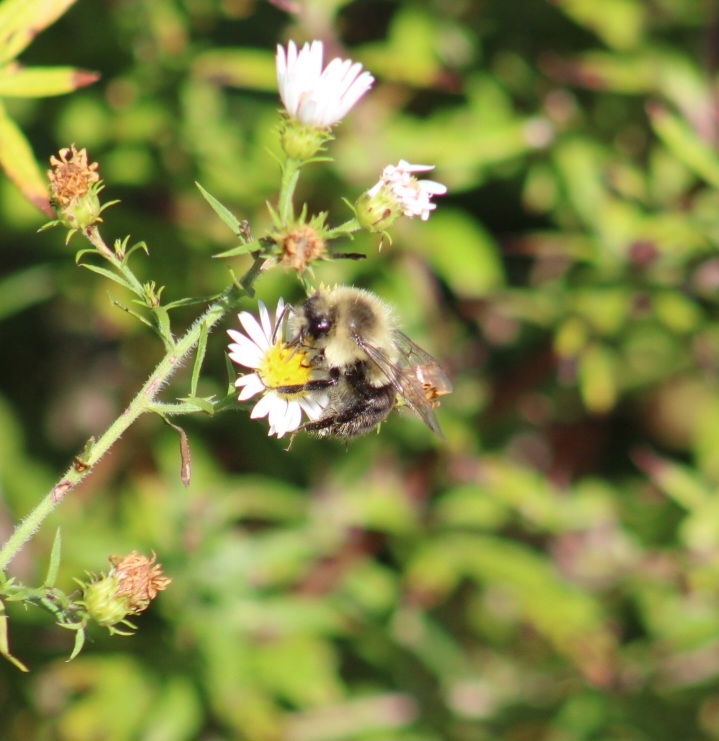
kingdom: Animalia
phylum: Arthropoda
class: Insecta
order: Hymenoptera
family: Apidae
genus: Bombus
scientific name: Bombus impatiens
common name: Common eastern bumble bee
